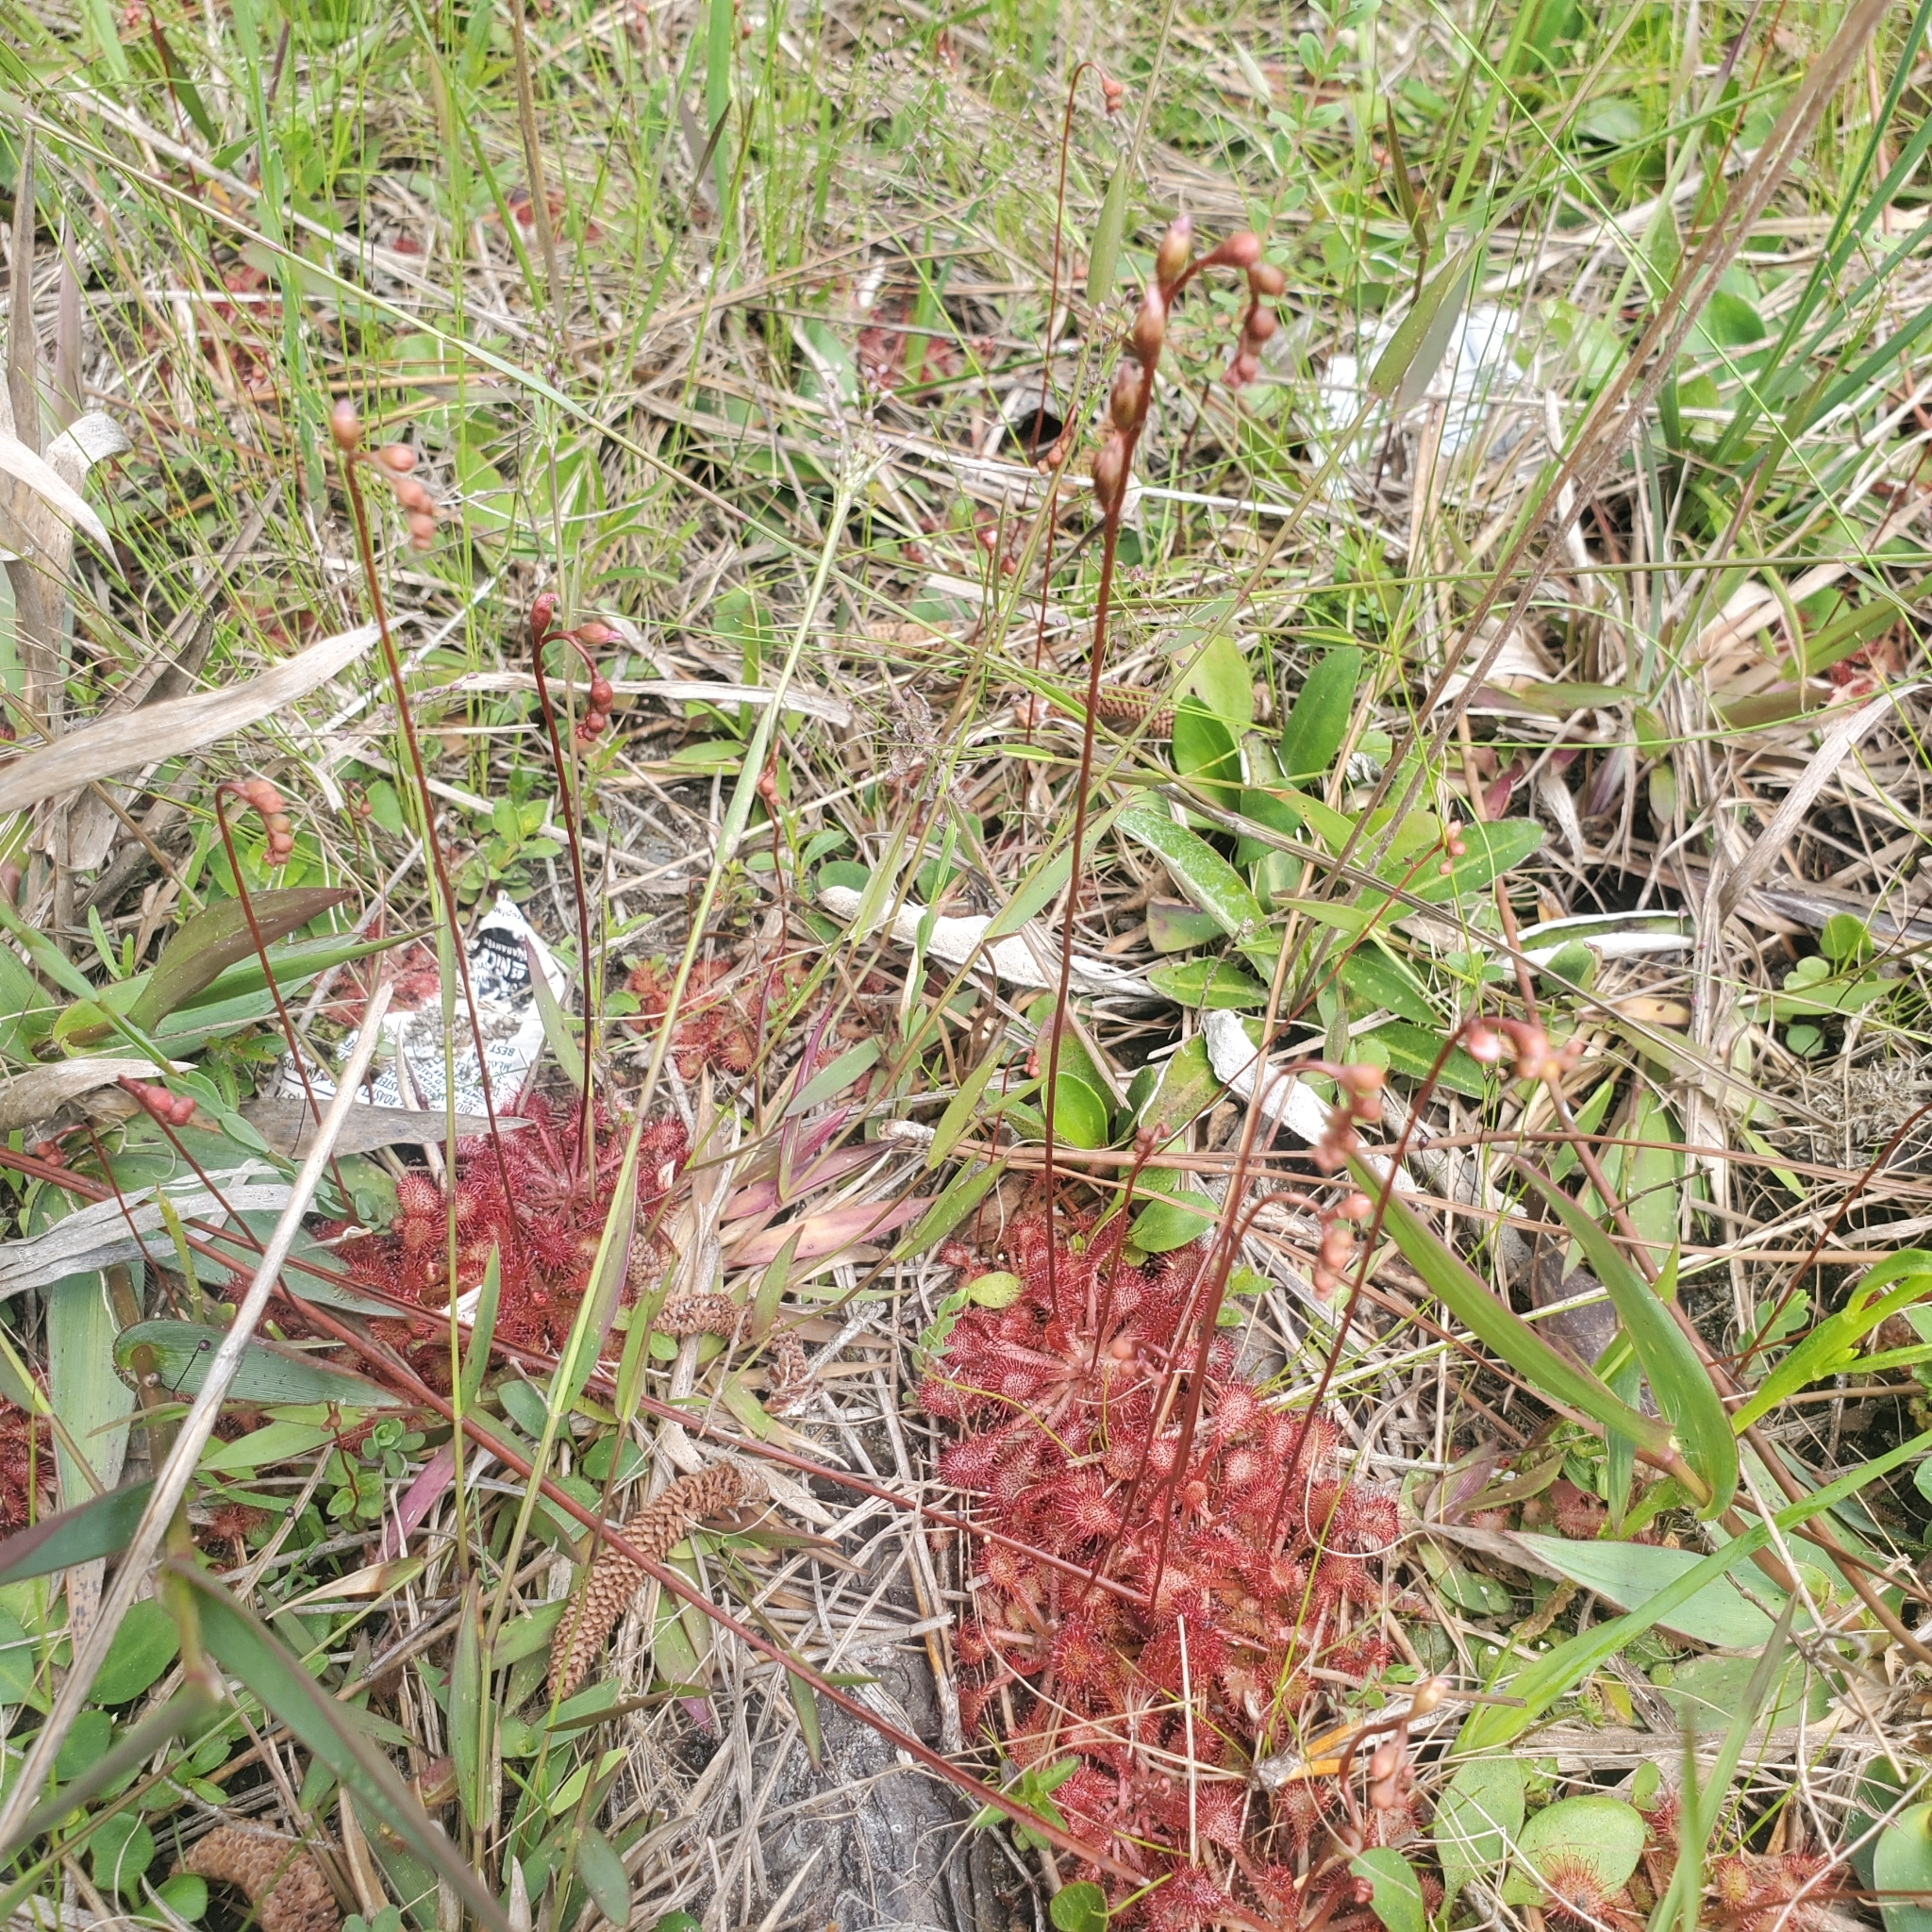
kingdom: Plantae
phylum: Tracheophyta
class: Magnoliopsida
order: Caryophyllales
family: Droseraceae
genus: Drosera
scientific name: Drosera capillaris
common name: Pink sundew
